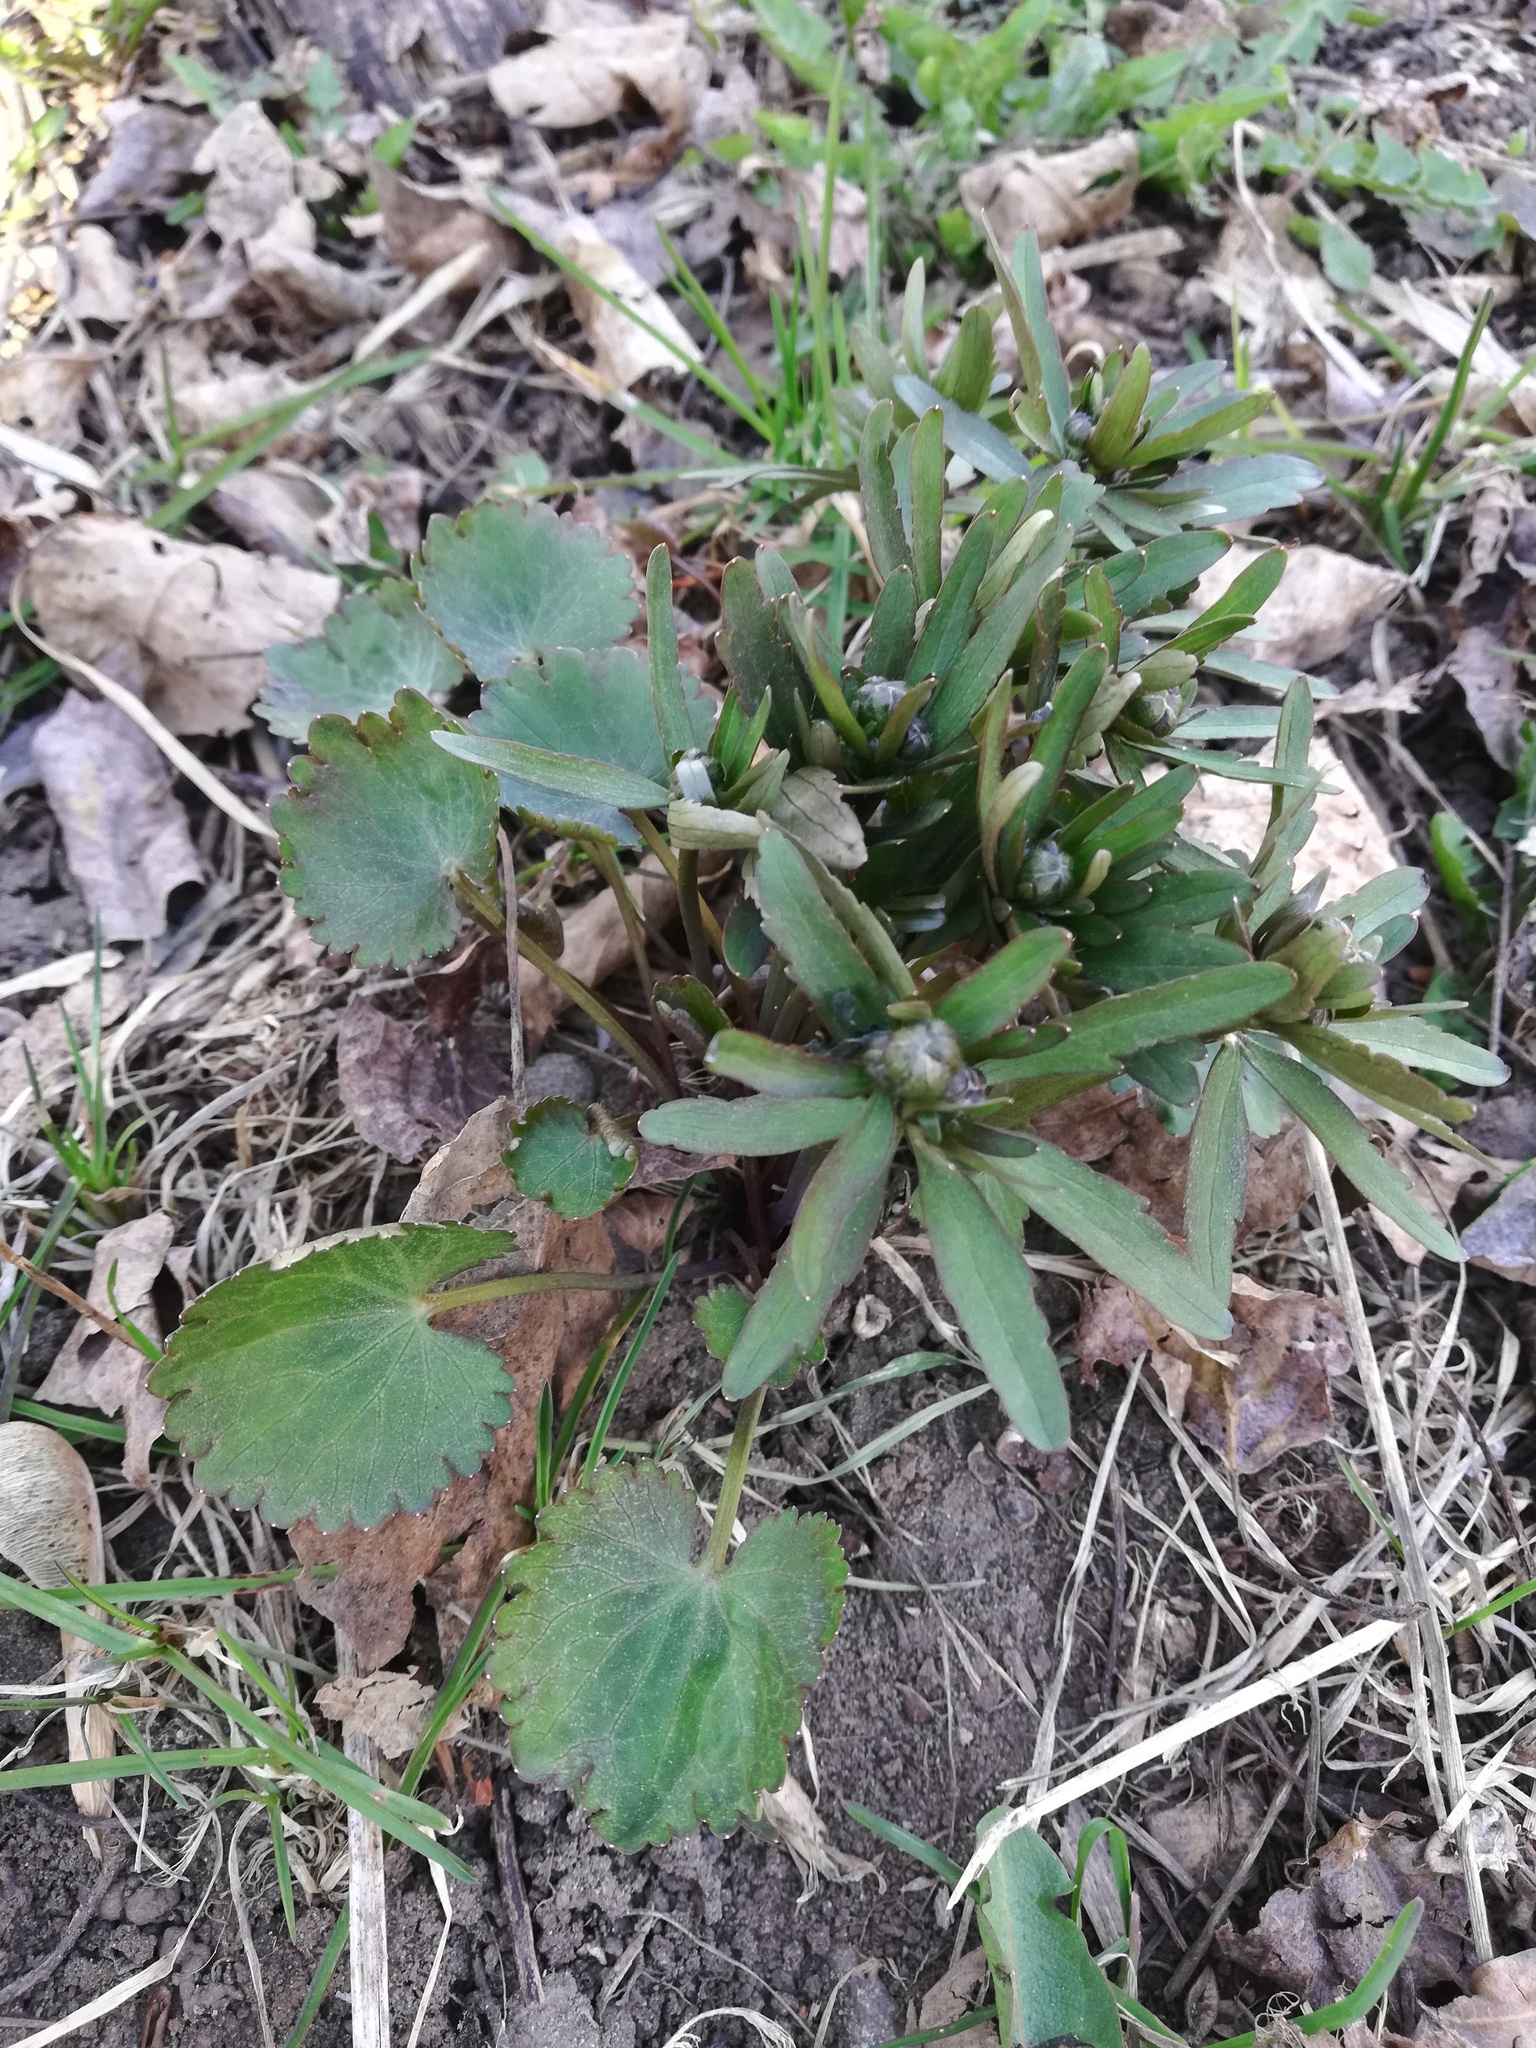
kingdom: Plantae
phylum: Tracheophyta
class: Magnoliopsida
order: Ranunculales
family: Ranunculaceae
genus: Ranunculus
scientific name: Ranunculus cassubicus
